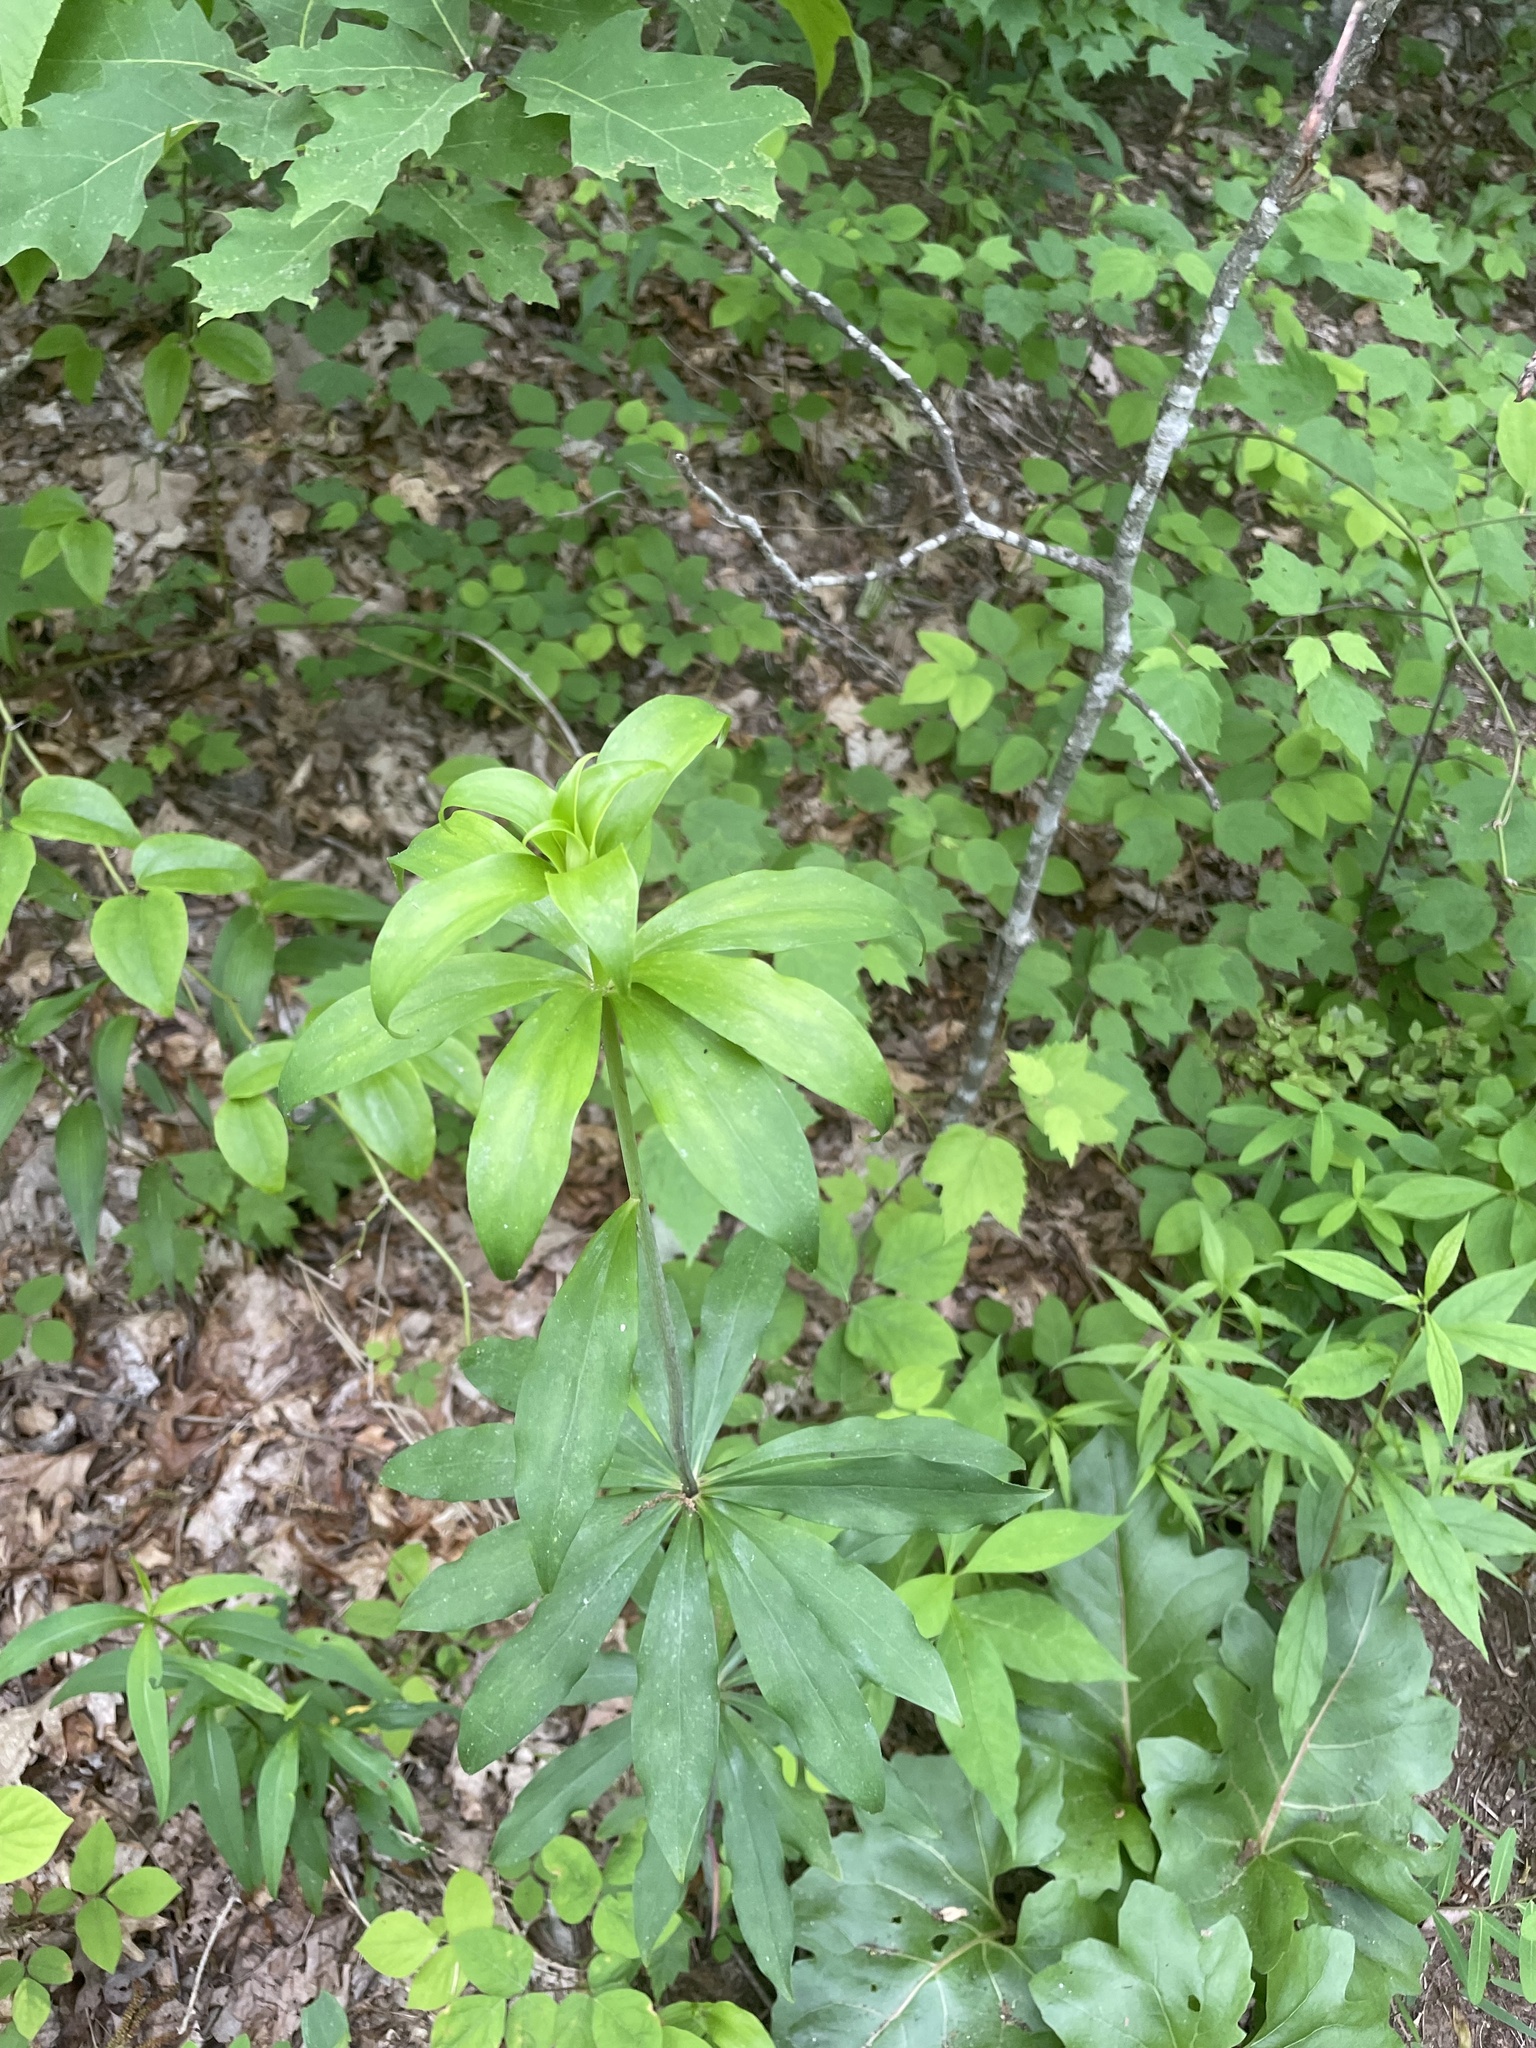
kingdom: Plantae
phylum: Tracheophyta
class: Liliopsida
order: Liliales
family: Liliaceae
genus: Lilium
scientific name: Lilium michauxii
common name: Carolina lily
